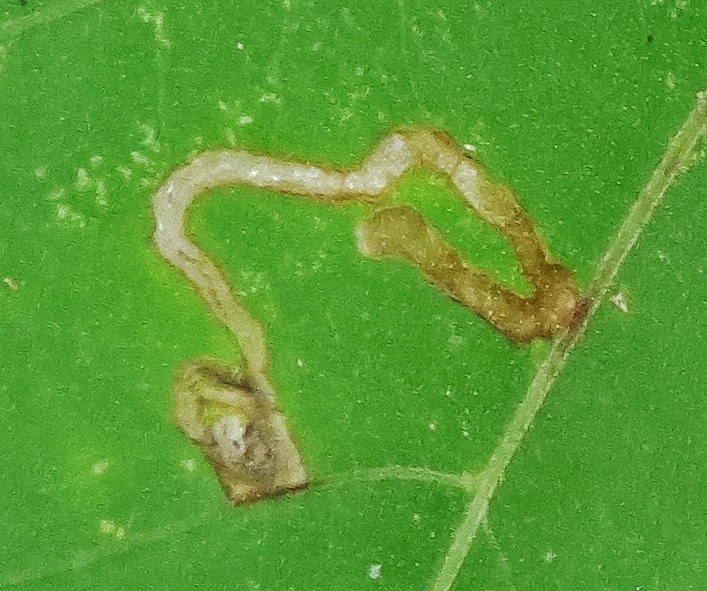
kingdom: Animalia
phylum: Arthropoda
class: Insecta
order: Diptera
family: Agromyzidae
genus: Liriomyza
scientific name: Liriomyza eupatorii
